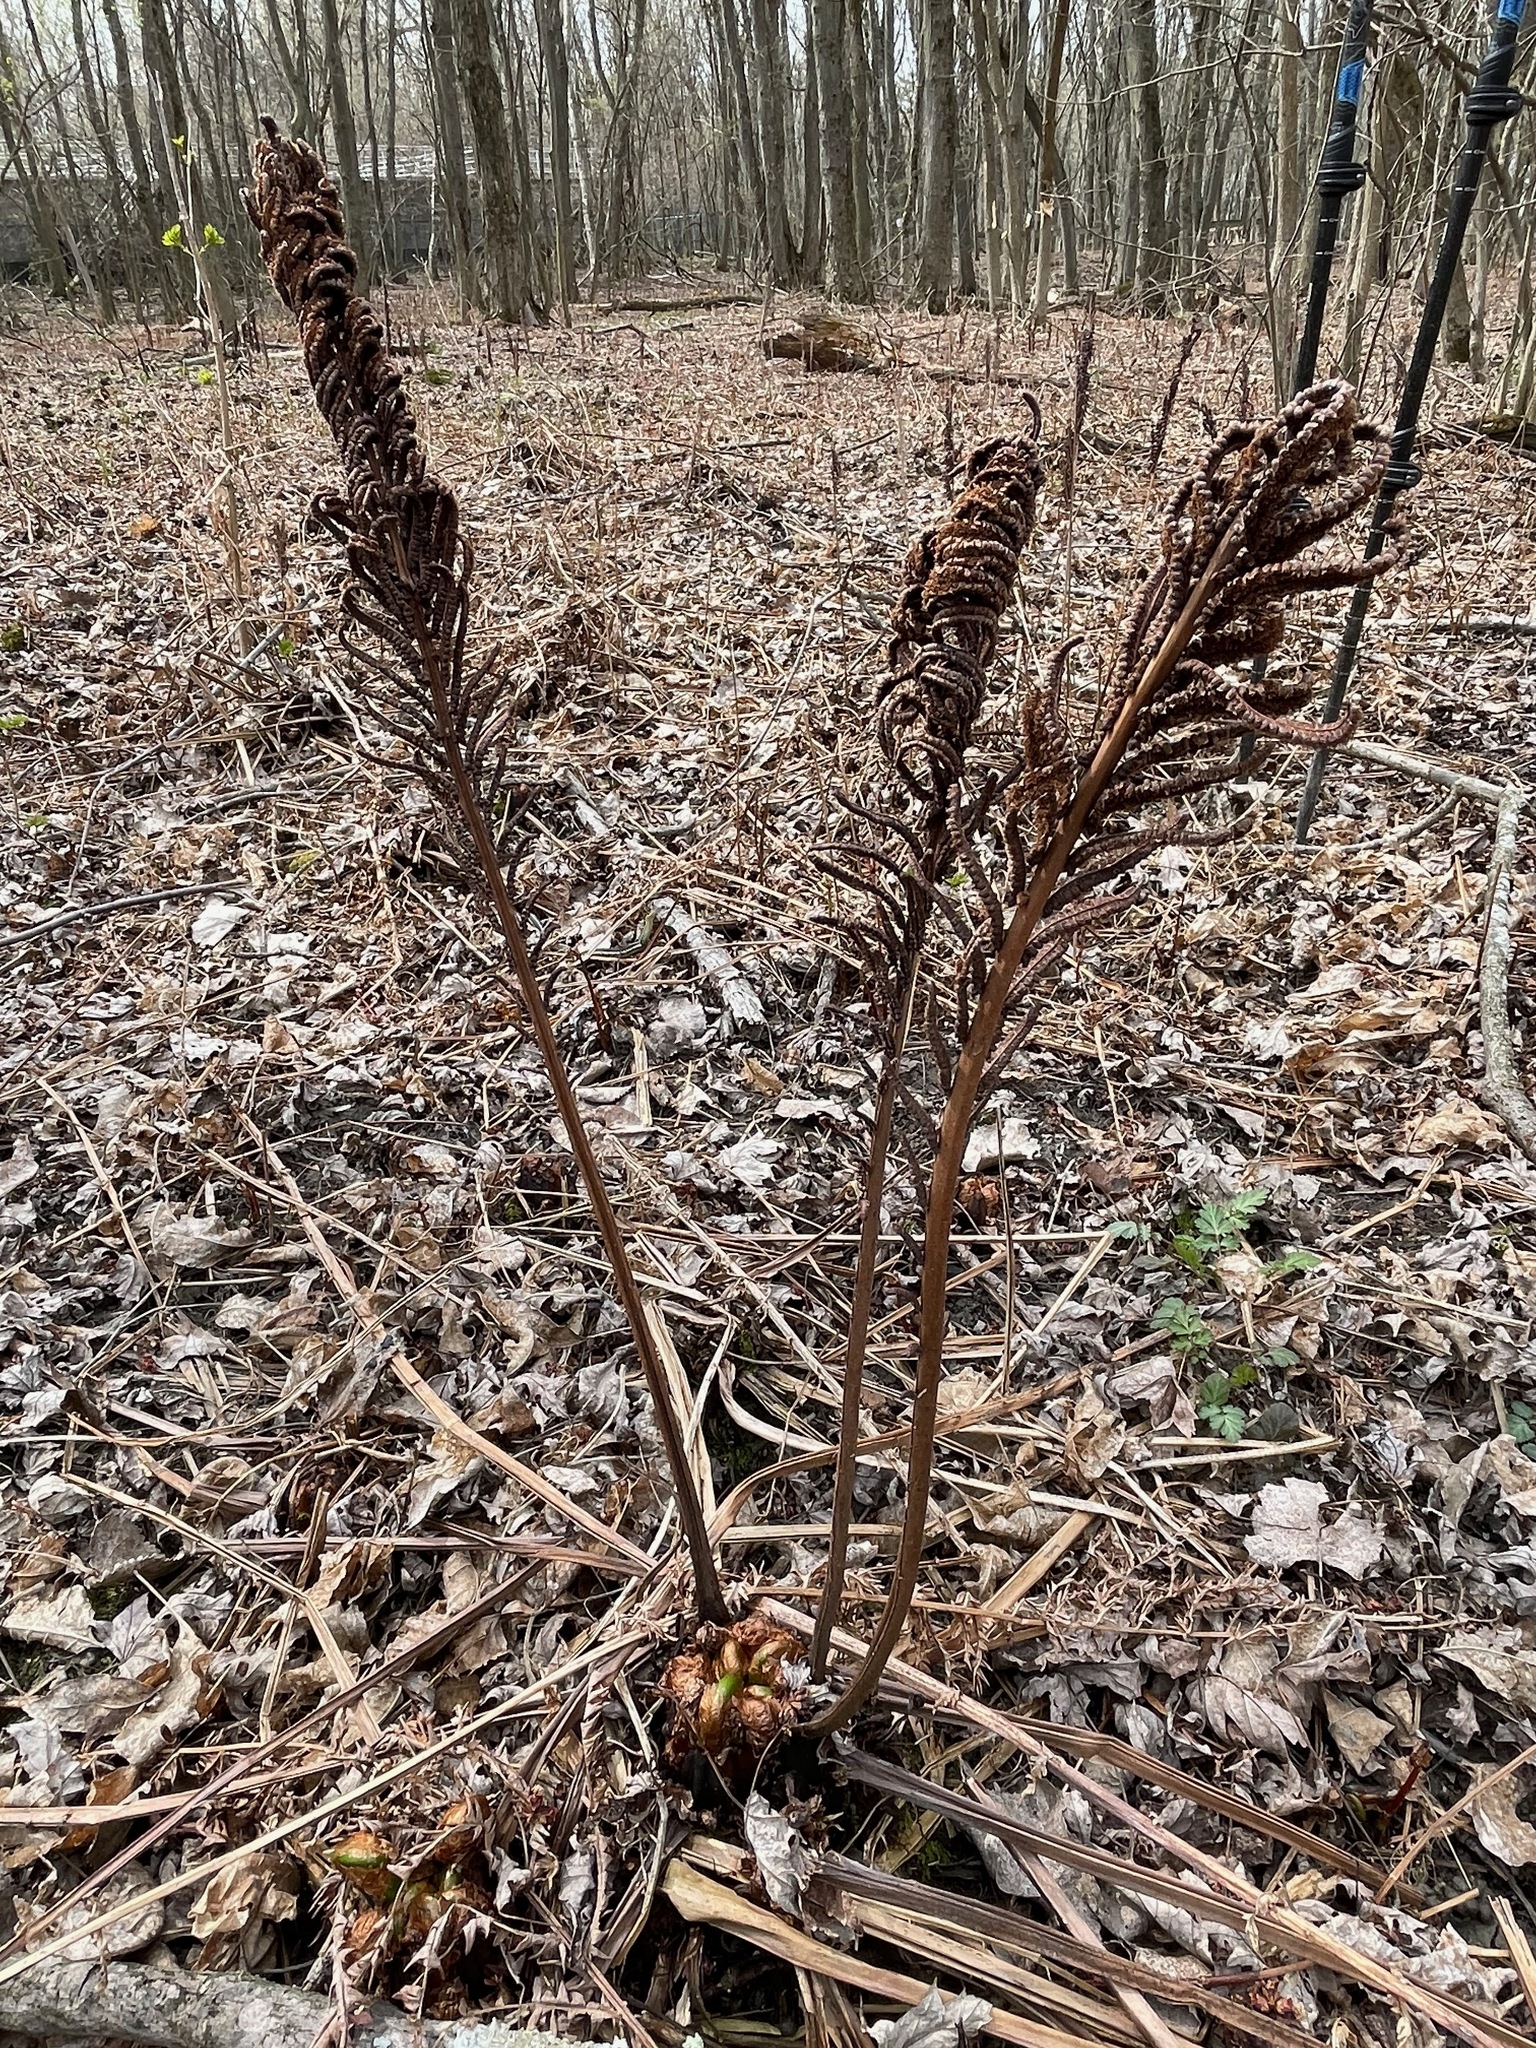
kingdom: Plantae
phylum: Tracheophyta
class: Polypodiopsida
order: Polypodiales
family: Onocleaceae
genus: Matteuccia
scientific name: Matteuccia struthiopteris
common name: Ostrich fern
